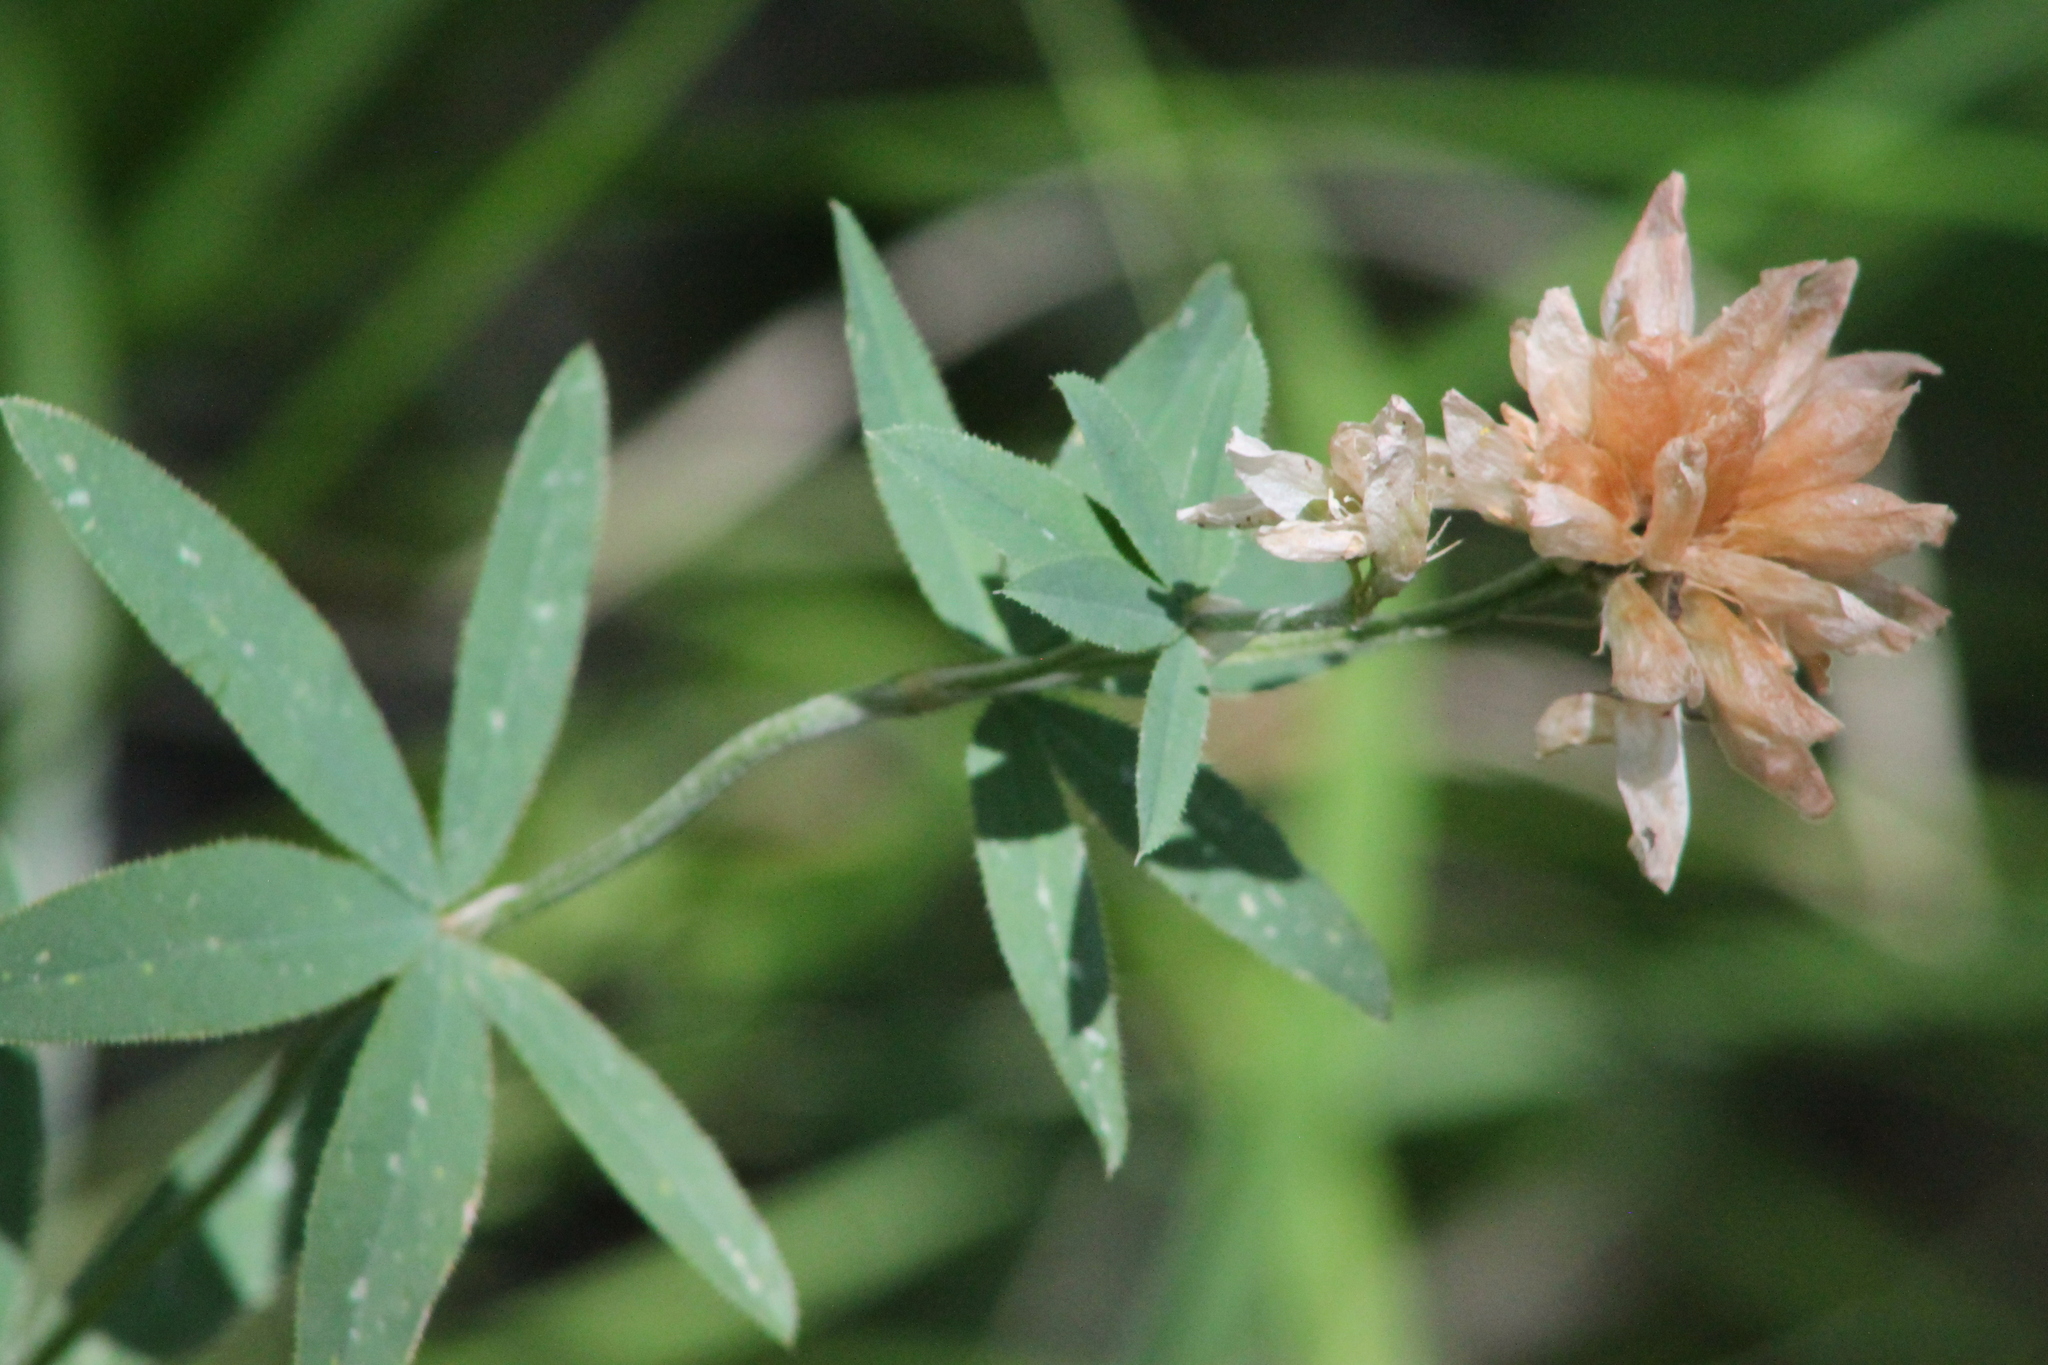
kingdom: Plantae
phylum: Tracheophyta
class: Magnoliopsida
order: Fabales
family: Fabaceae
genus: Trifolium
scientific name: Trifolium lupinaster
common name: Lupine clover
